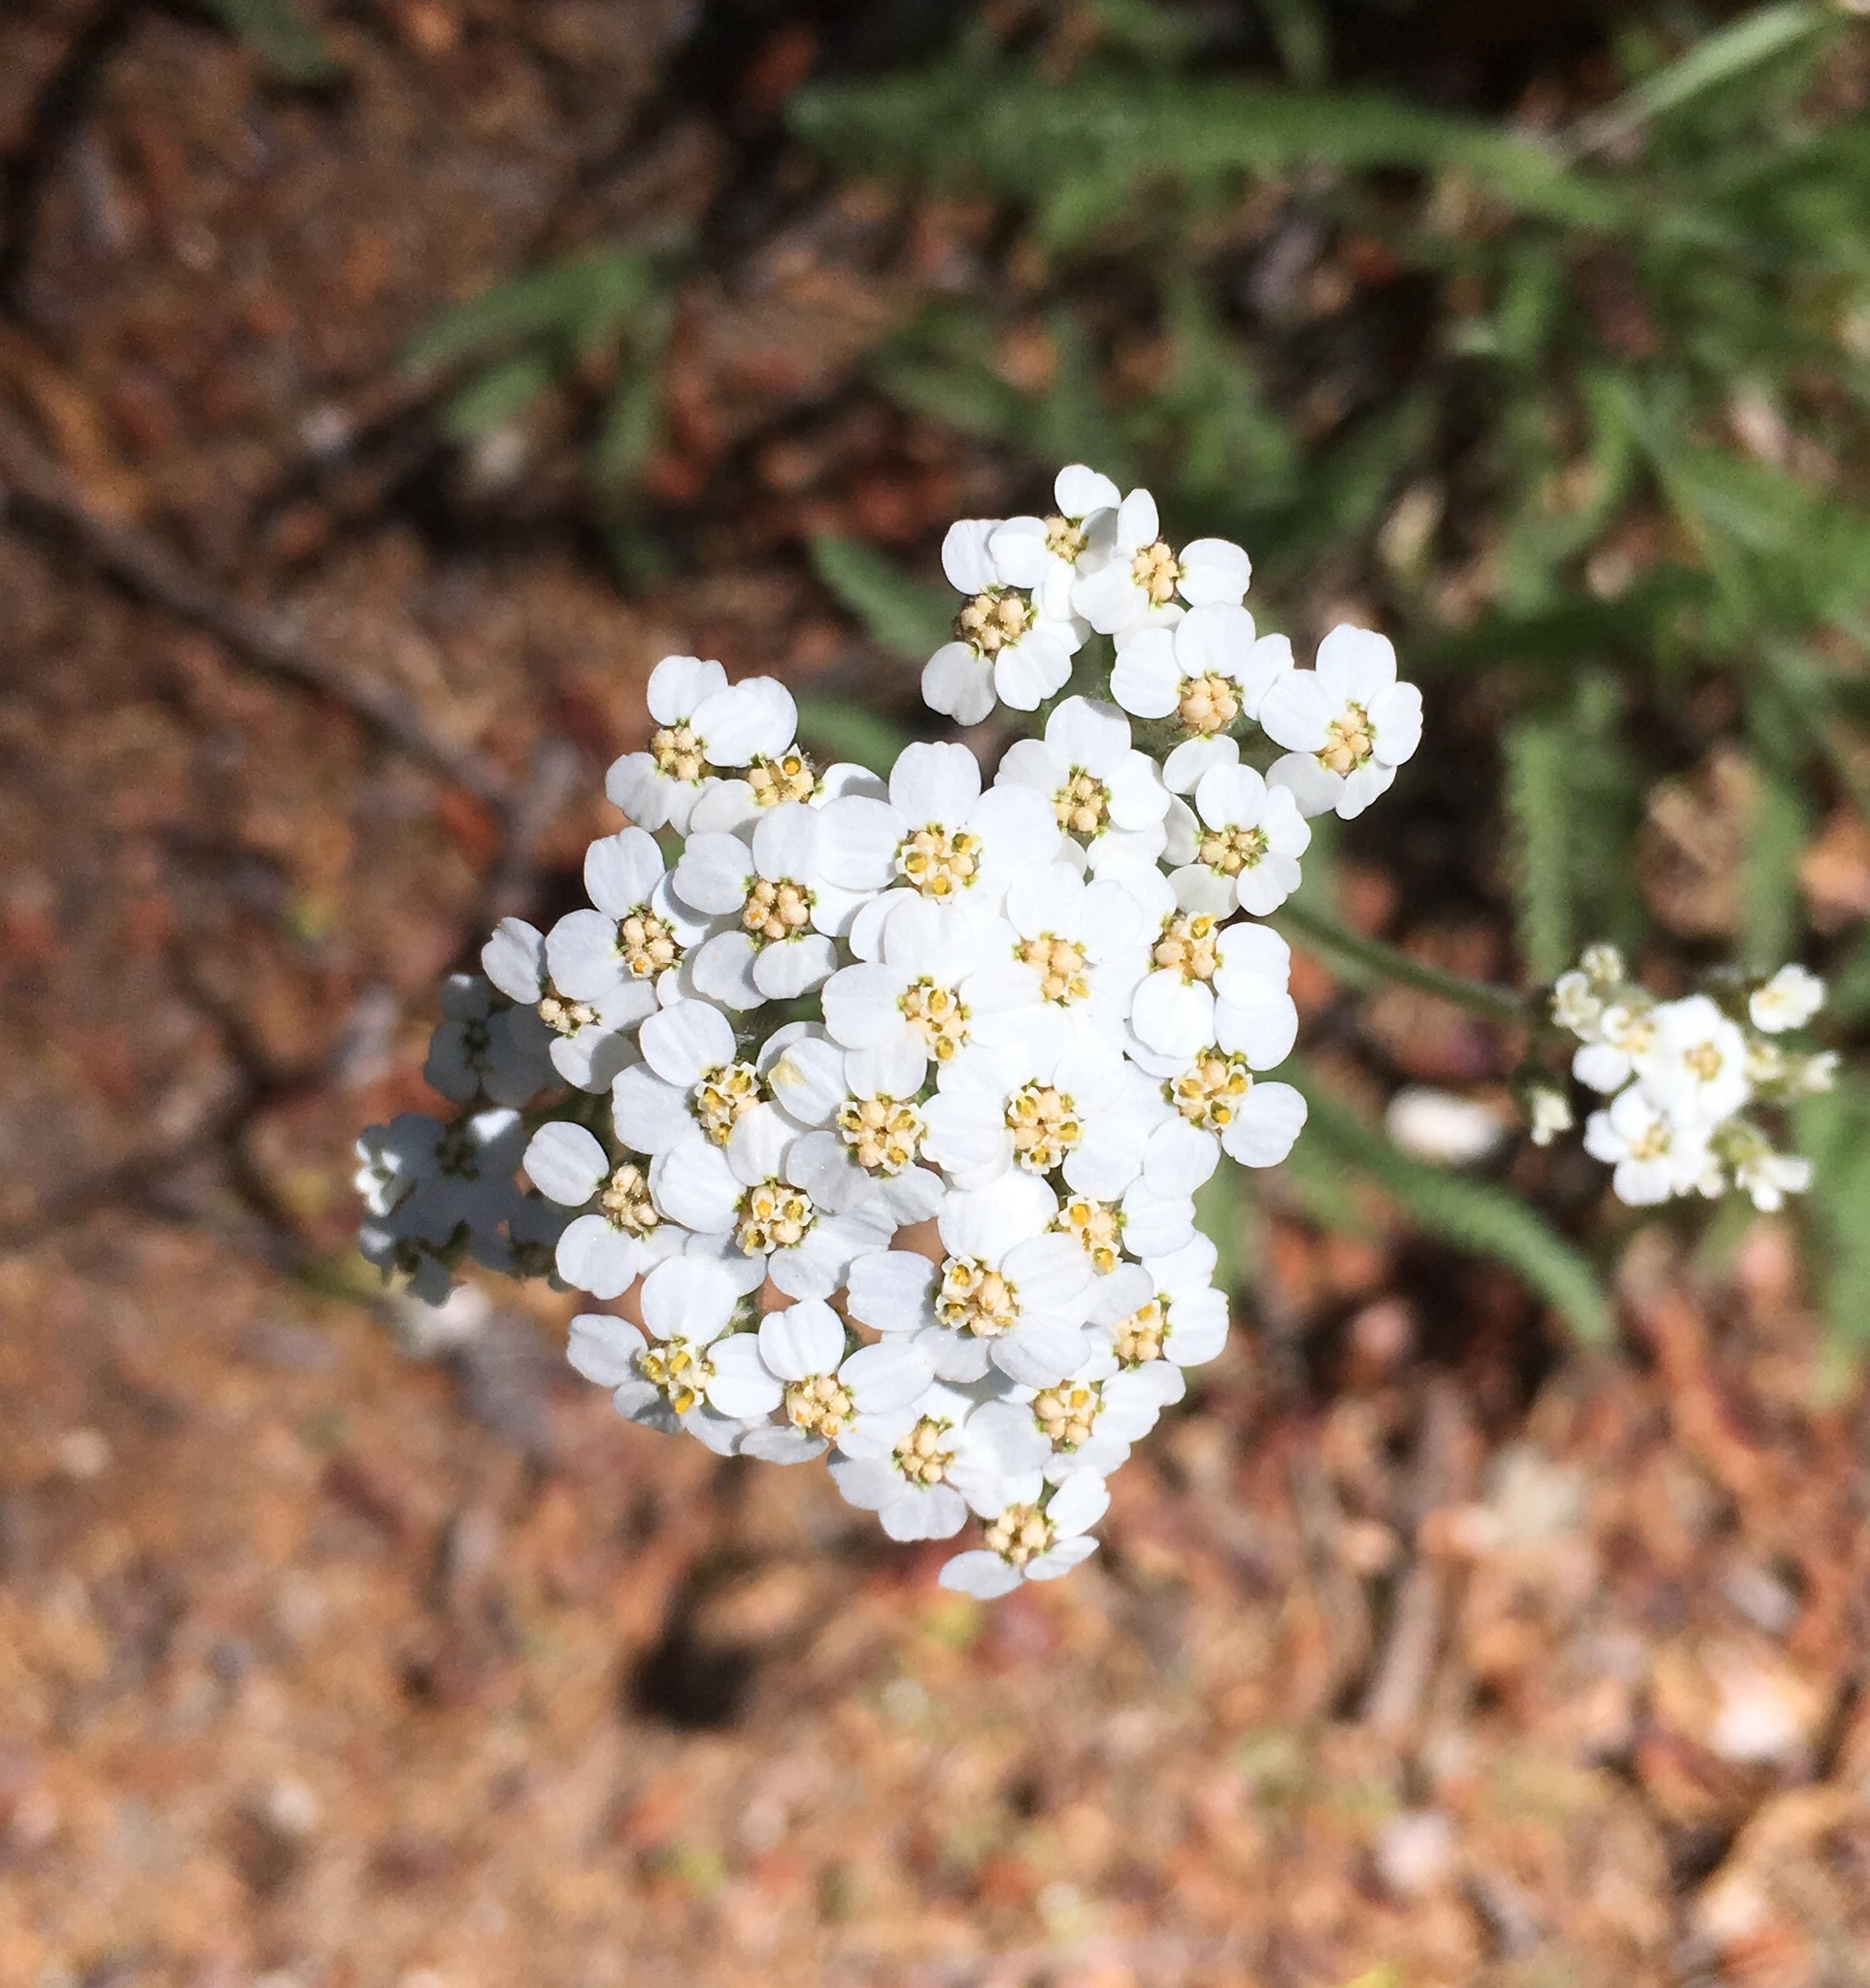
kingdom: Plantae
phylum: Tracheophyta
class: Magnoliopsida
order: Asterales
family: Asteraceae
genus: Achillea
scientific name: Achillea millefolium
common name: Yarrow
